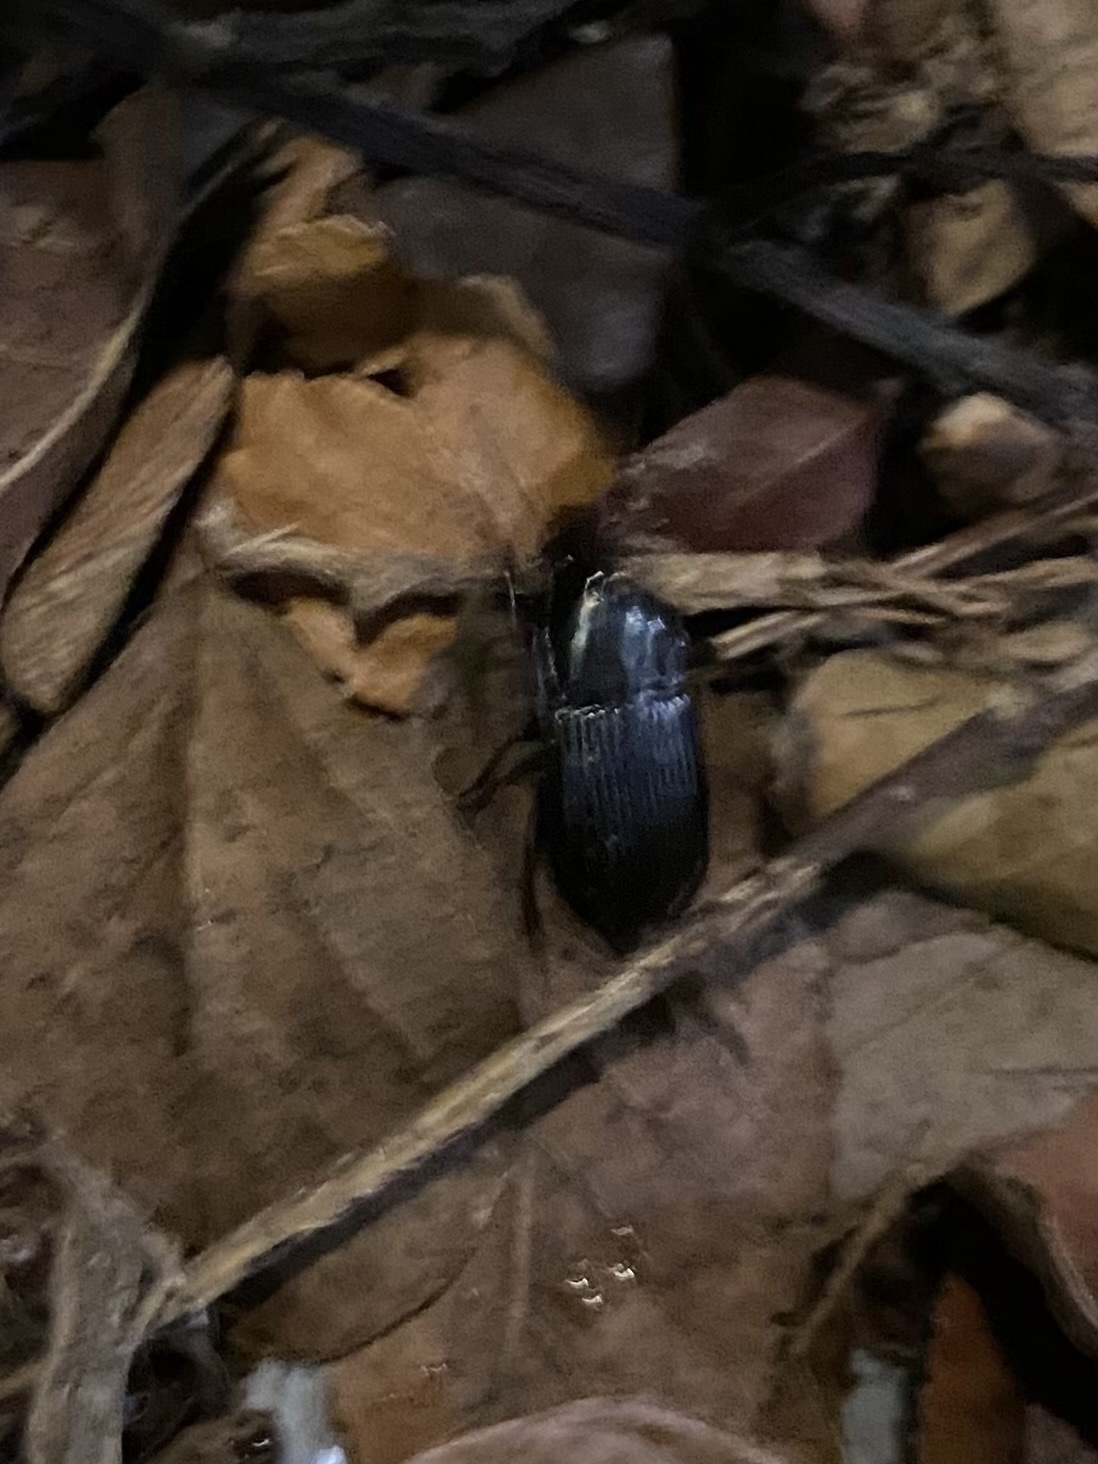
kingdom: Animalia
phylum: Arthropoda
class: Insecta
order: Coleoptera
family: Carabidae
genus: Abacidus
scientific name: Abacidus
